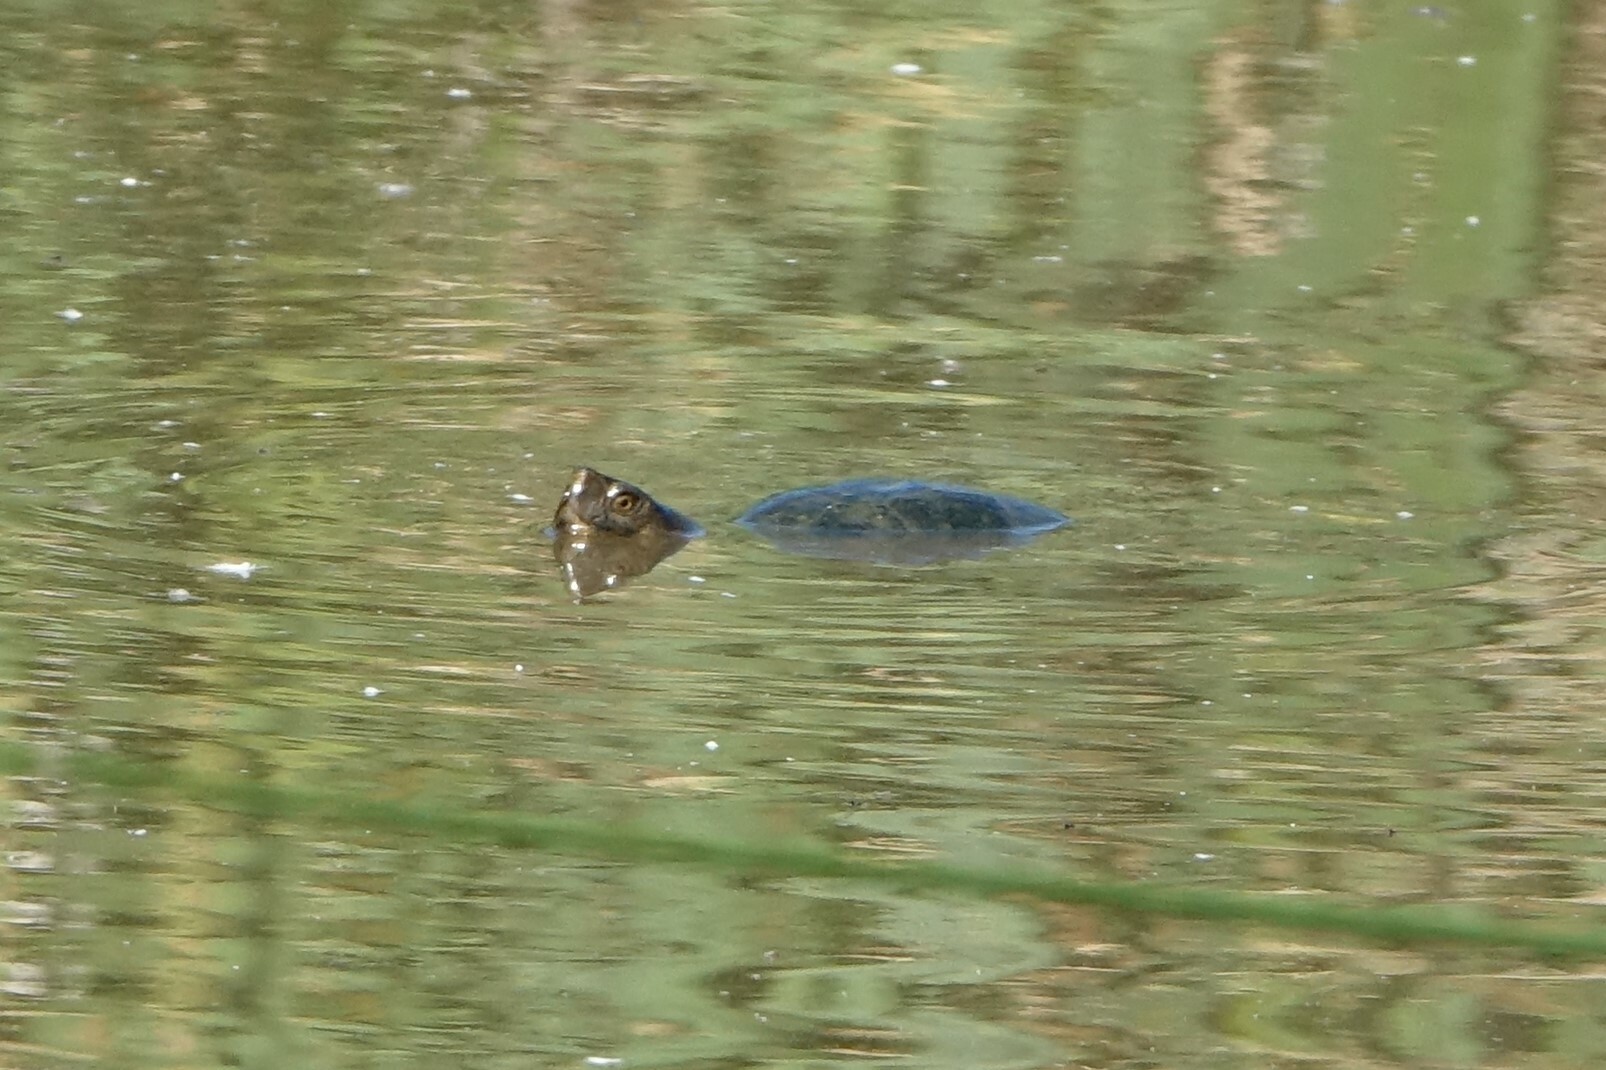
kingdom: Animalia
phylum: Chordata
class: Testudines
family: Geoemydidae
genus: Mauremys
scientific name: Mauremys leprosa
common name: Mediterranean pond turtle
